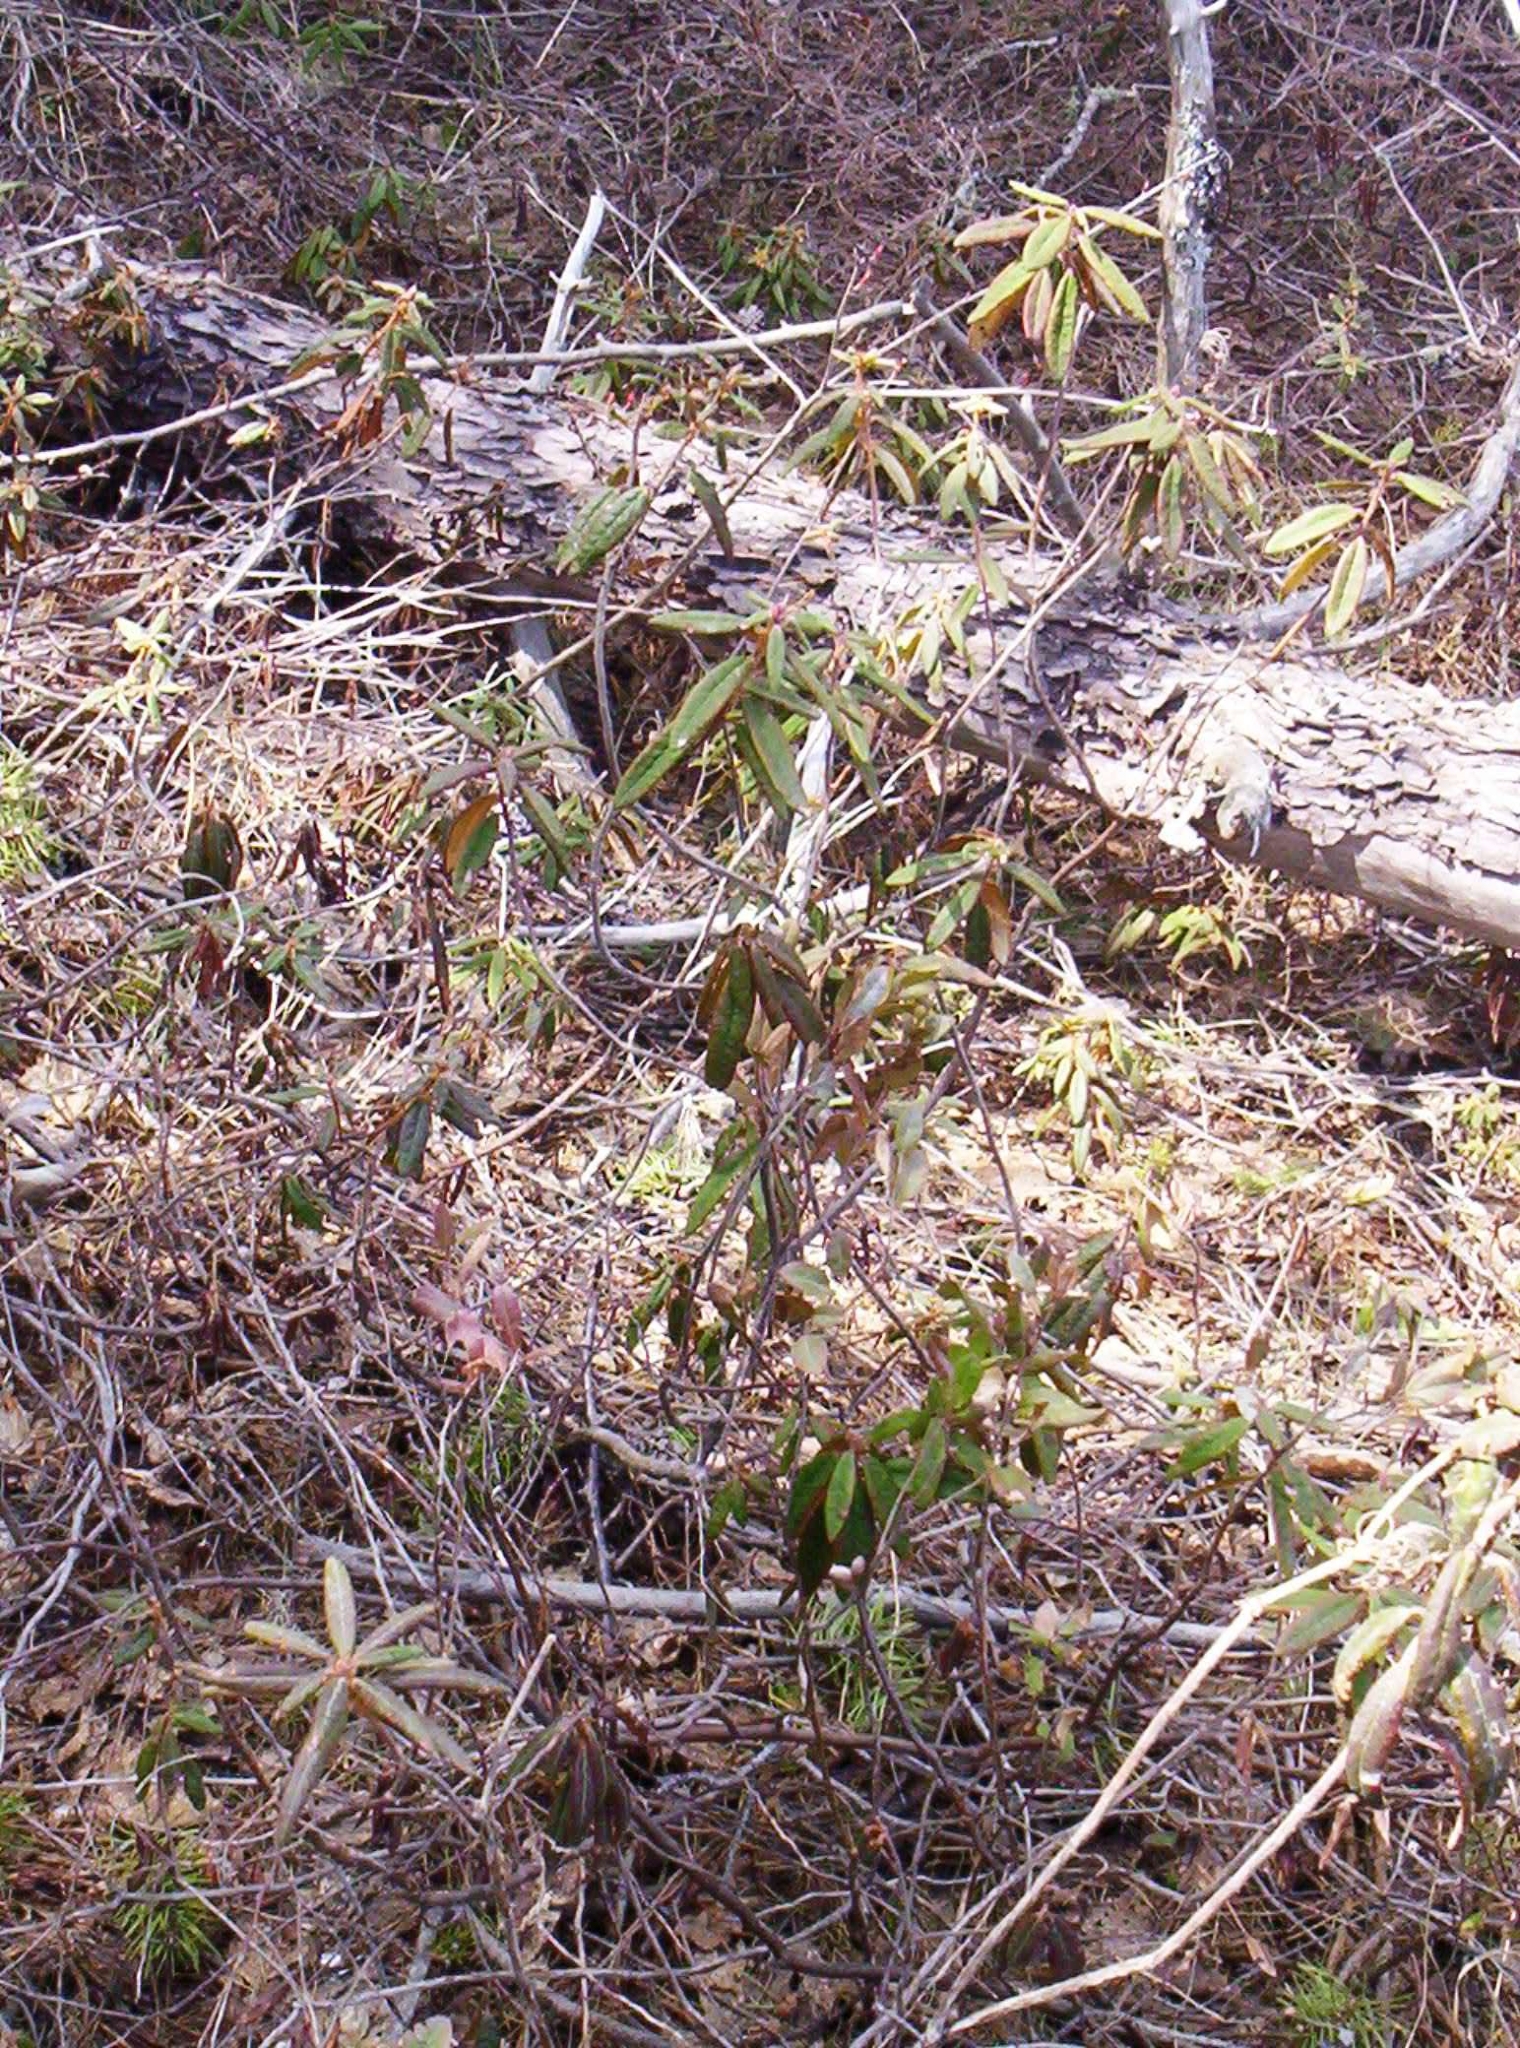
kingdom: Plantae
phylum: Tracheophyta
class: Magnoliopsida
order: Ericales
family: Ericaceae
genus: Rhododendron
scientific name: Rhododendron groenlandicum
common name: Bog labrador tea
